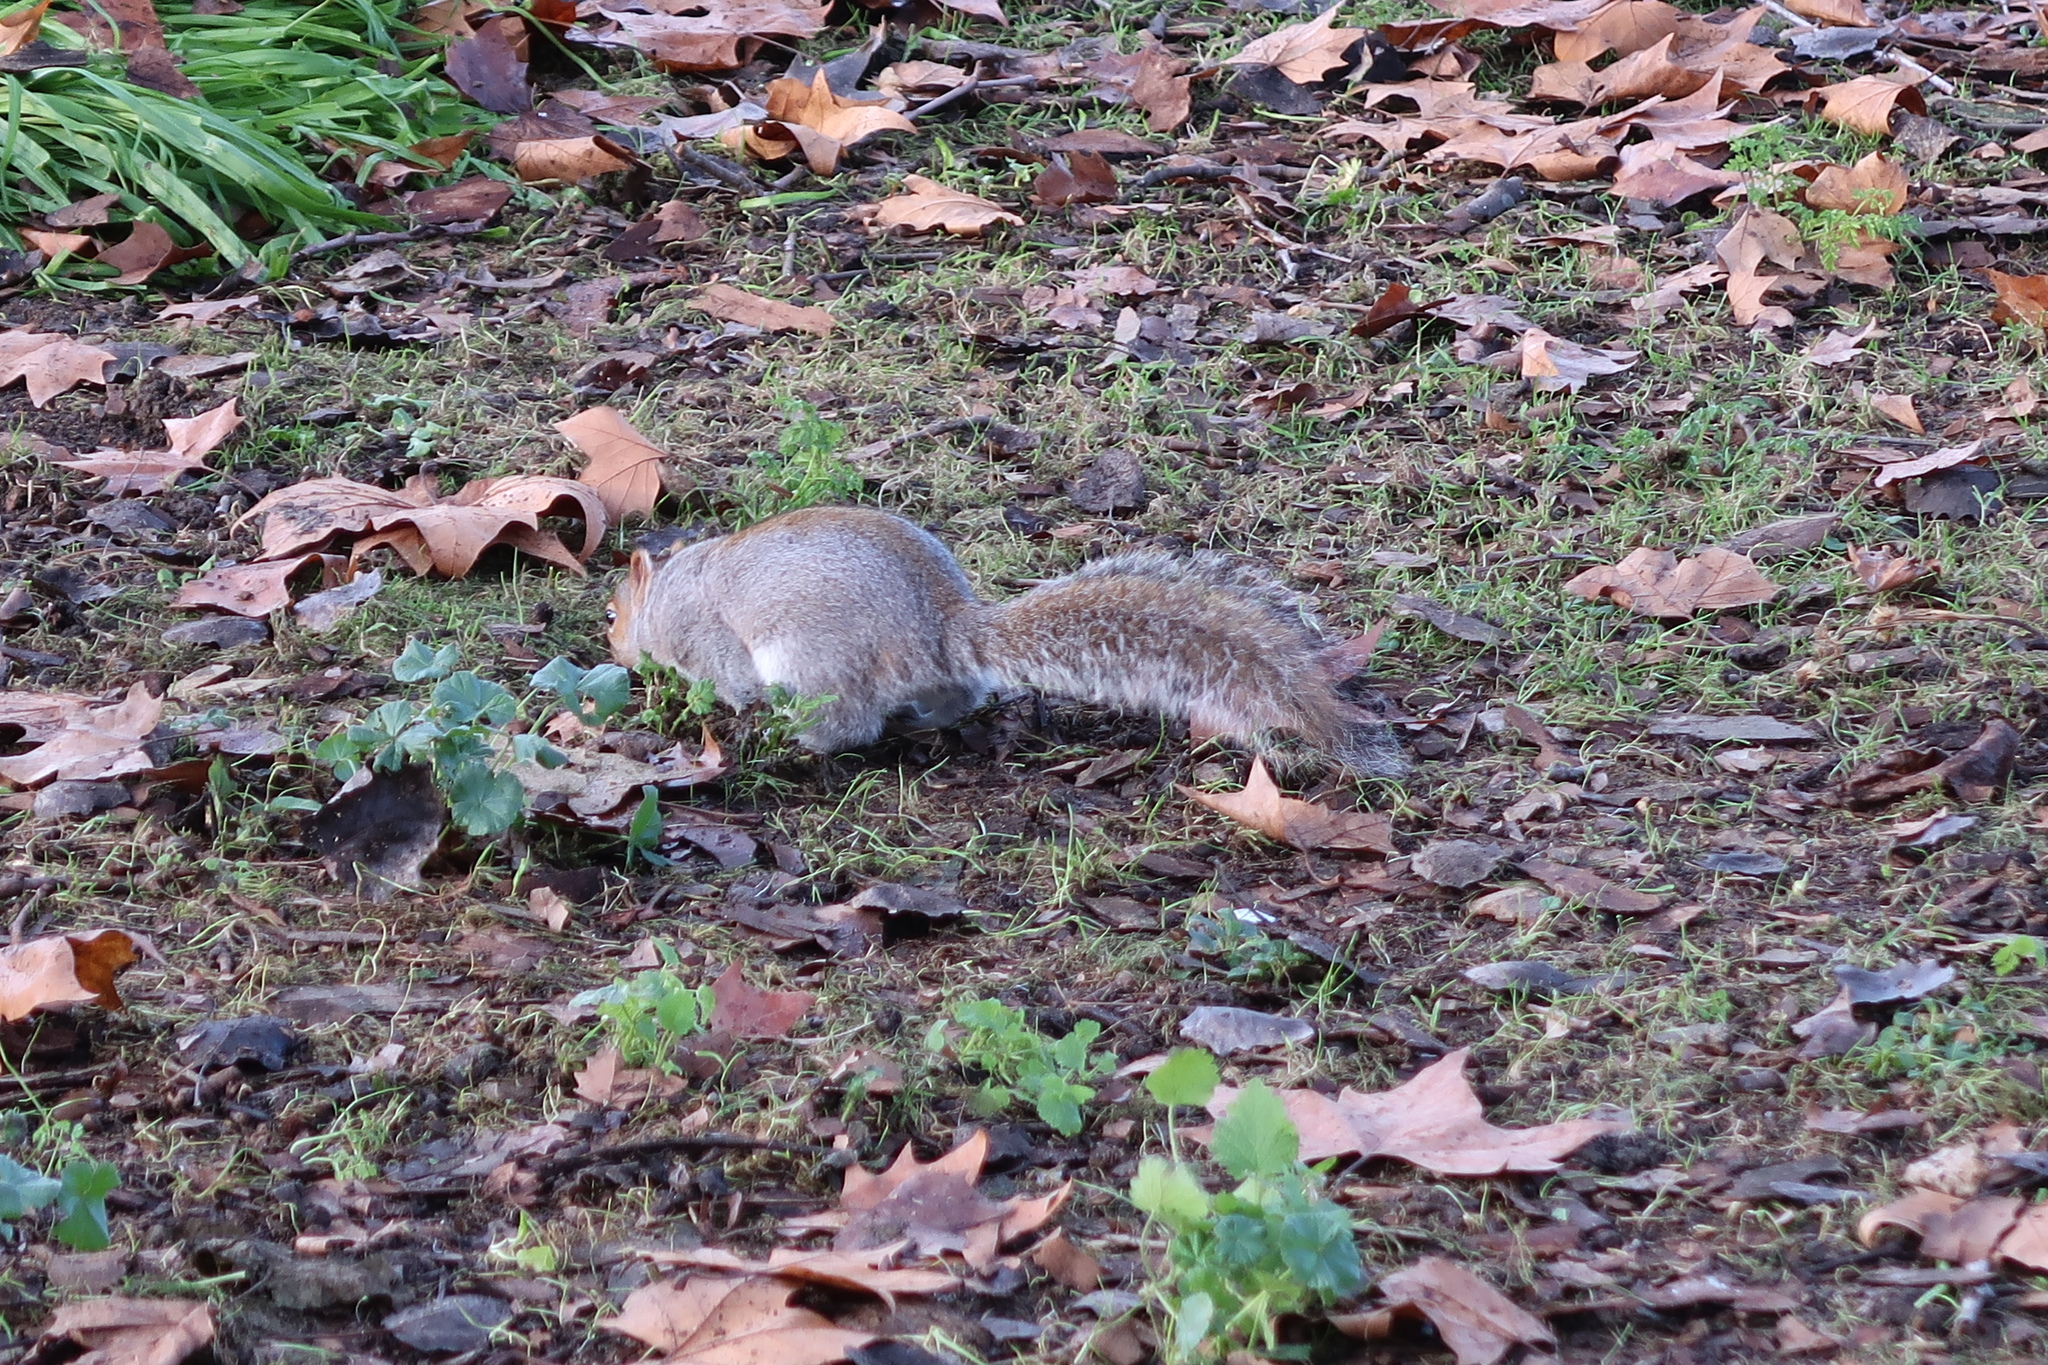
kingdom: Animalia
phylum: Chordata
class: Mammalia
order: Rodentia
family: Sciuridae
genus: Sciurus
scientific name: Sciurus carolinensis
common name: Eastern gray squirrel
